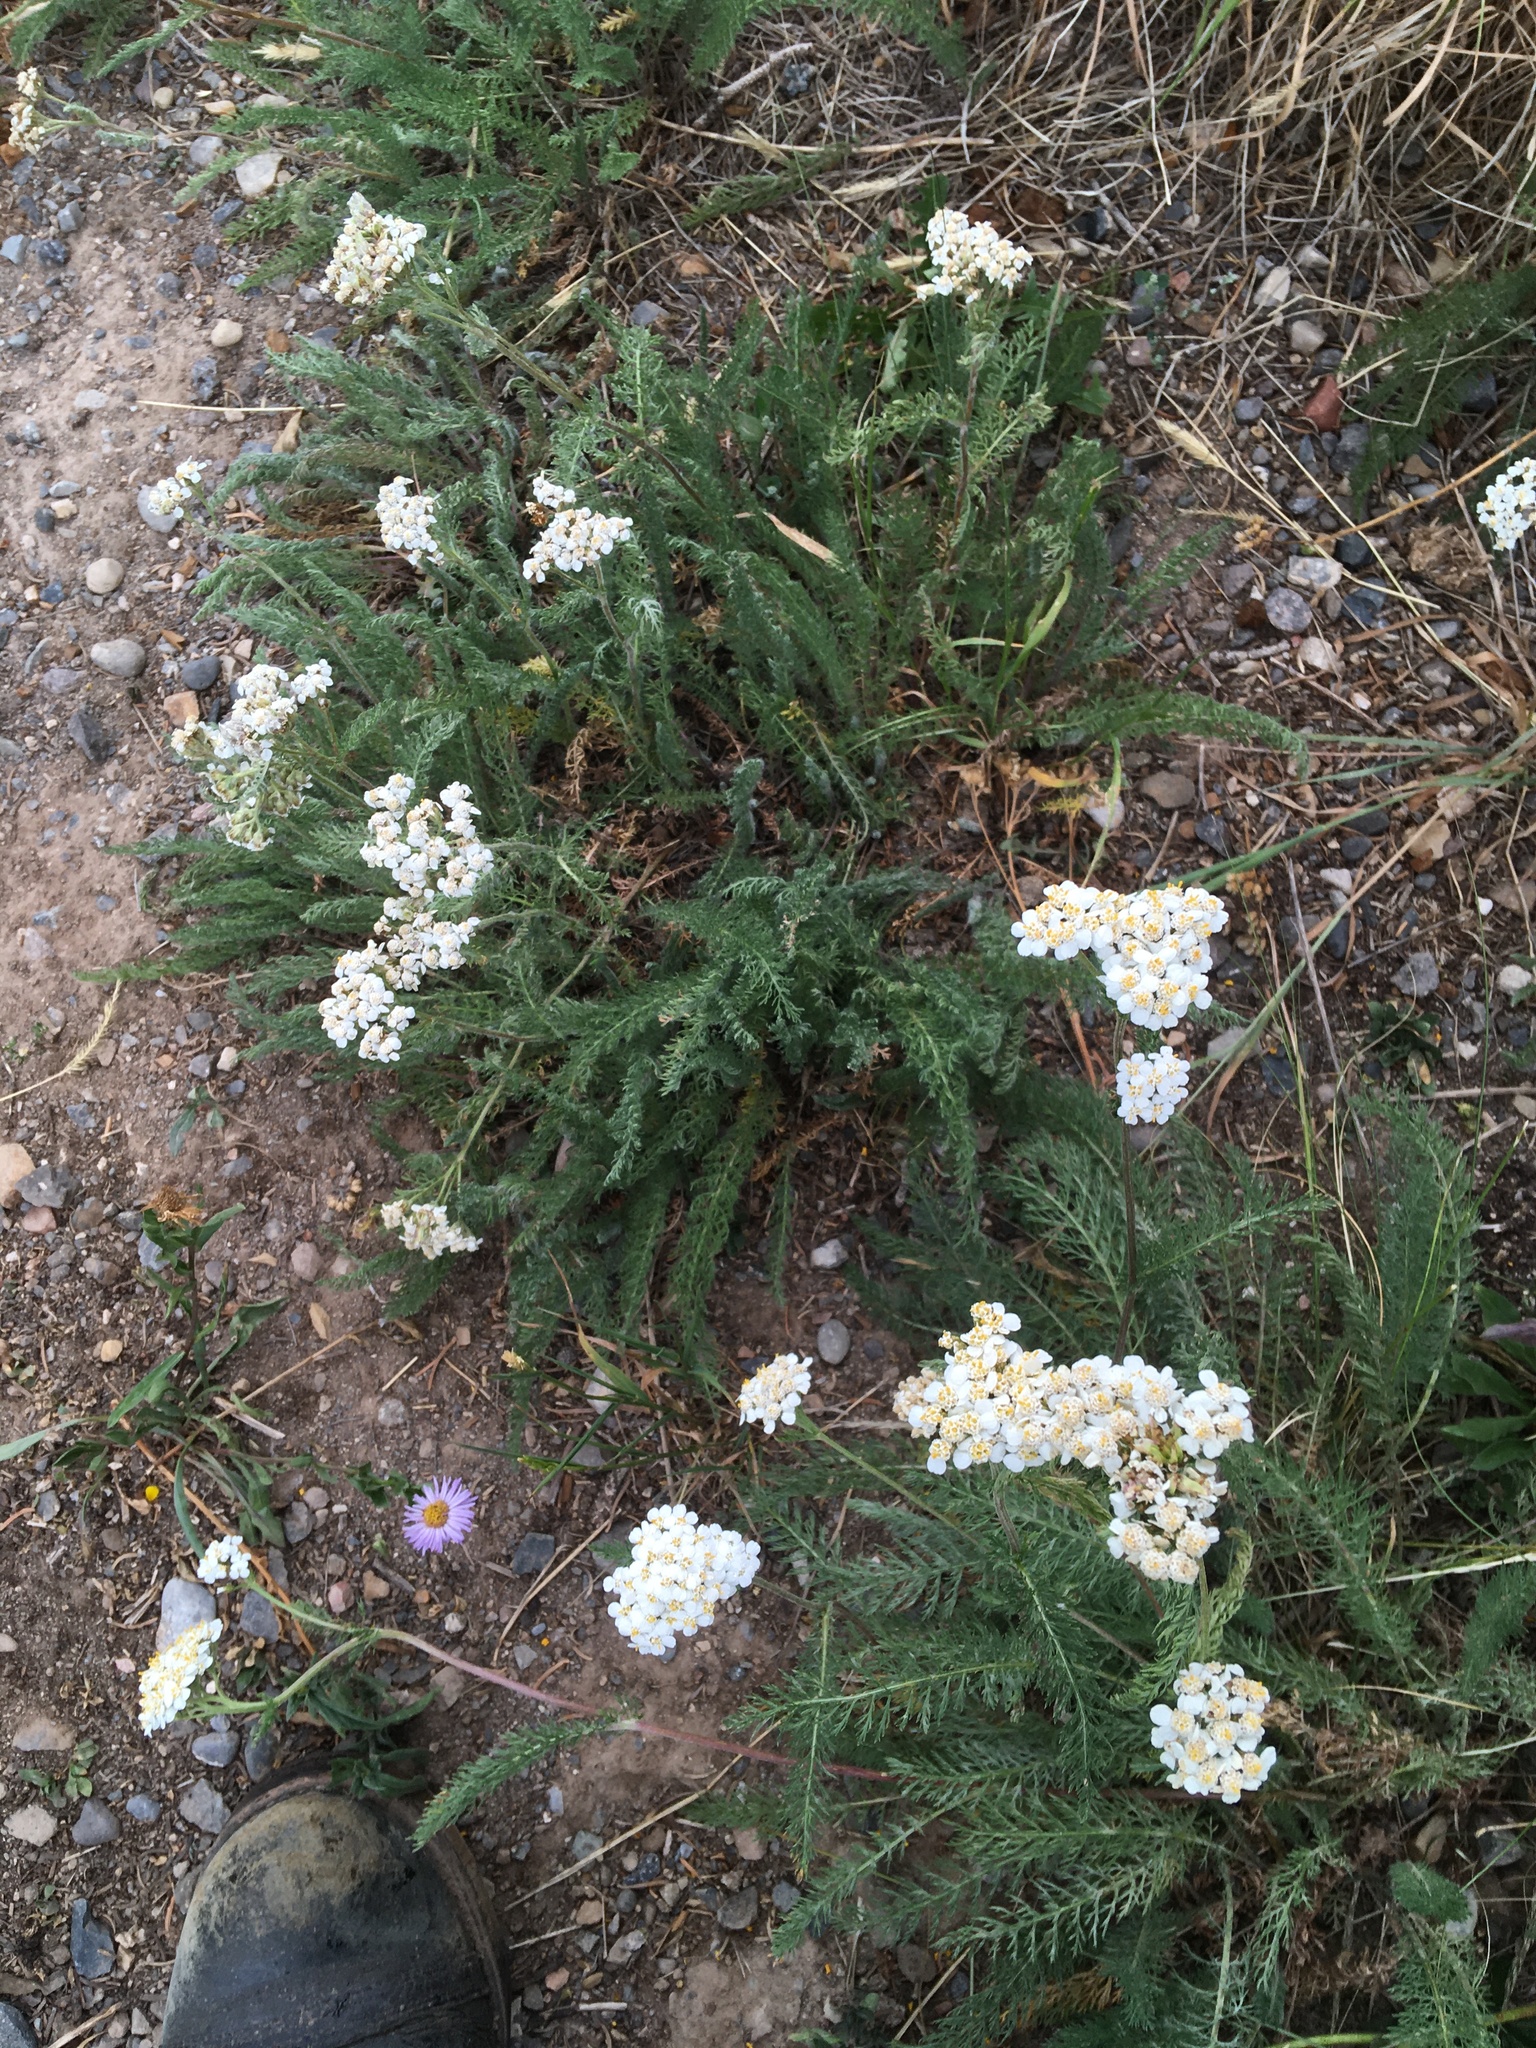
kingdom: Plantae
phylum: Tracheophyta
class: Magnoliopsida
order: Asterales
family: Asteraceae
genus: Achillea
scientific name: Achillea millefolium
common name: Yarrow
